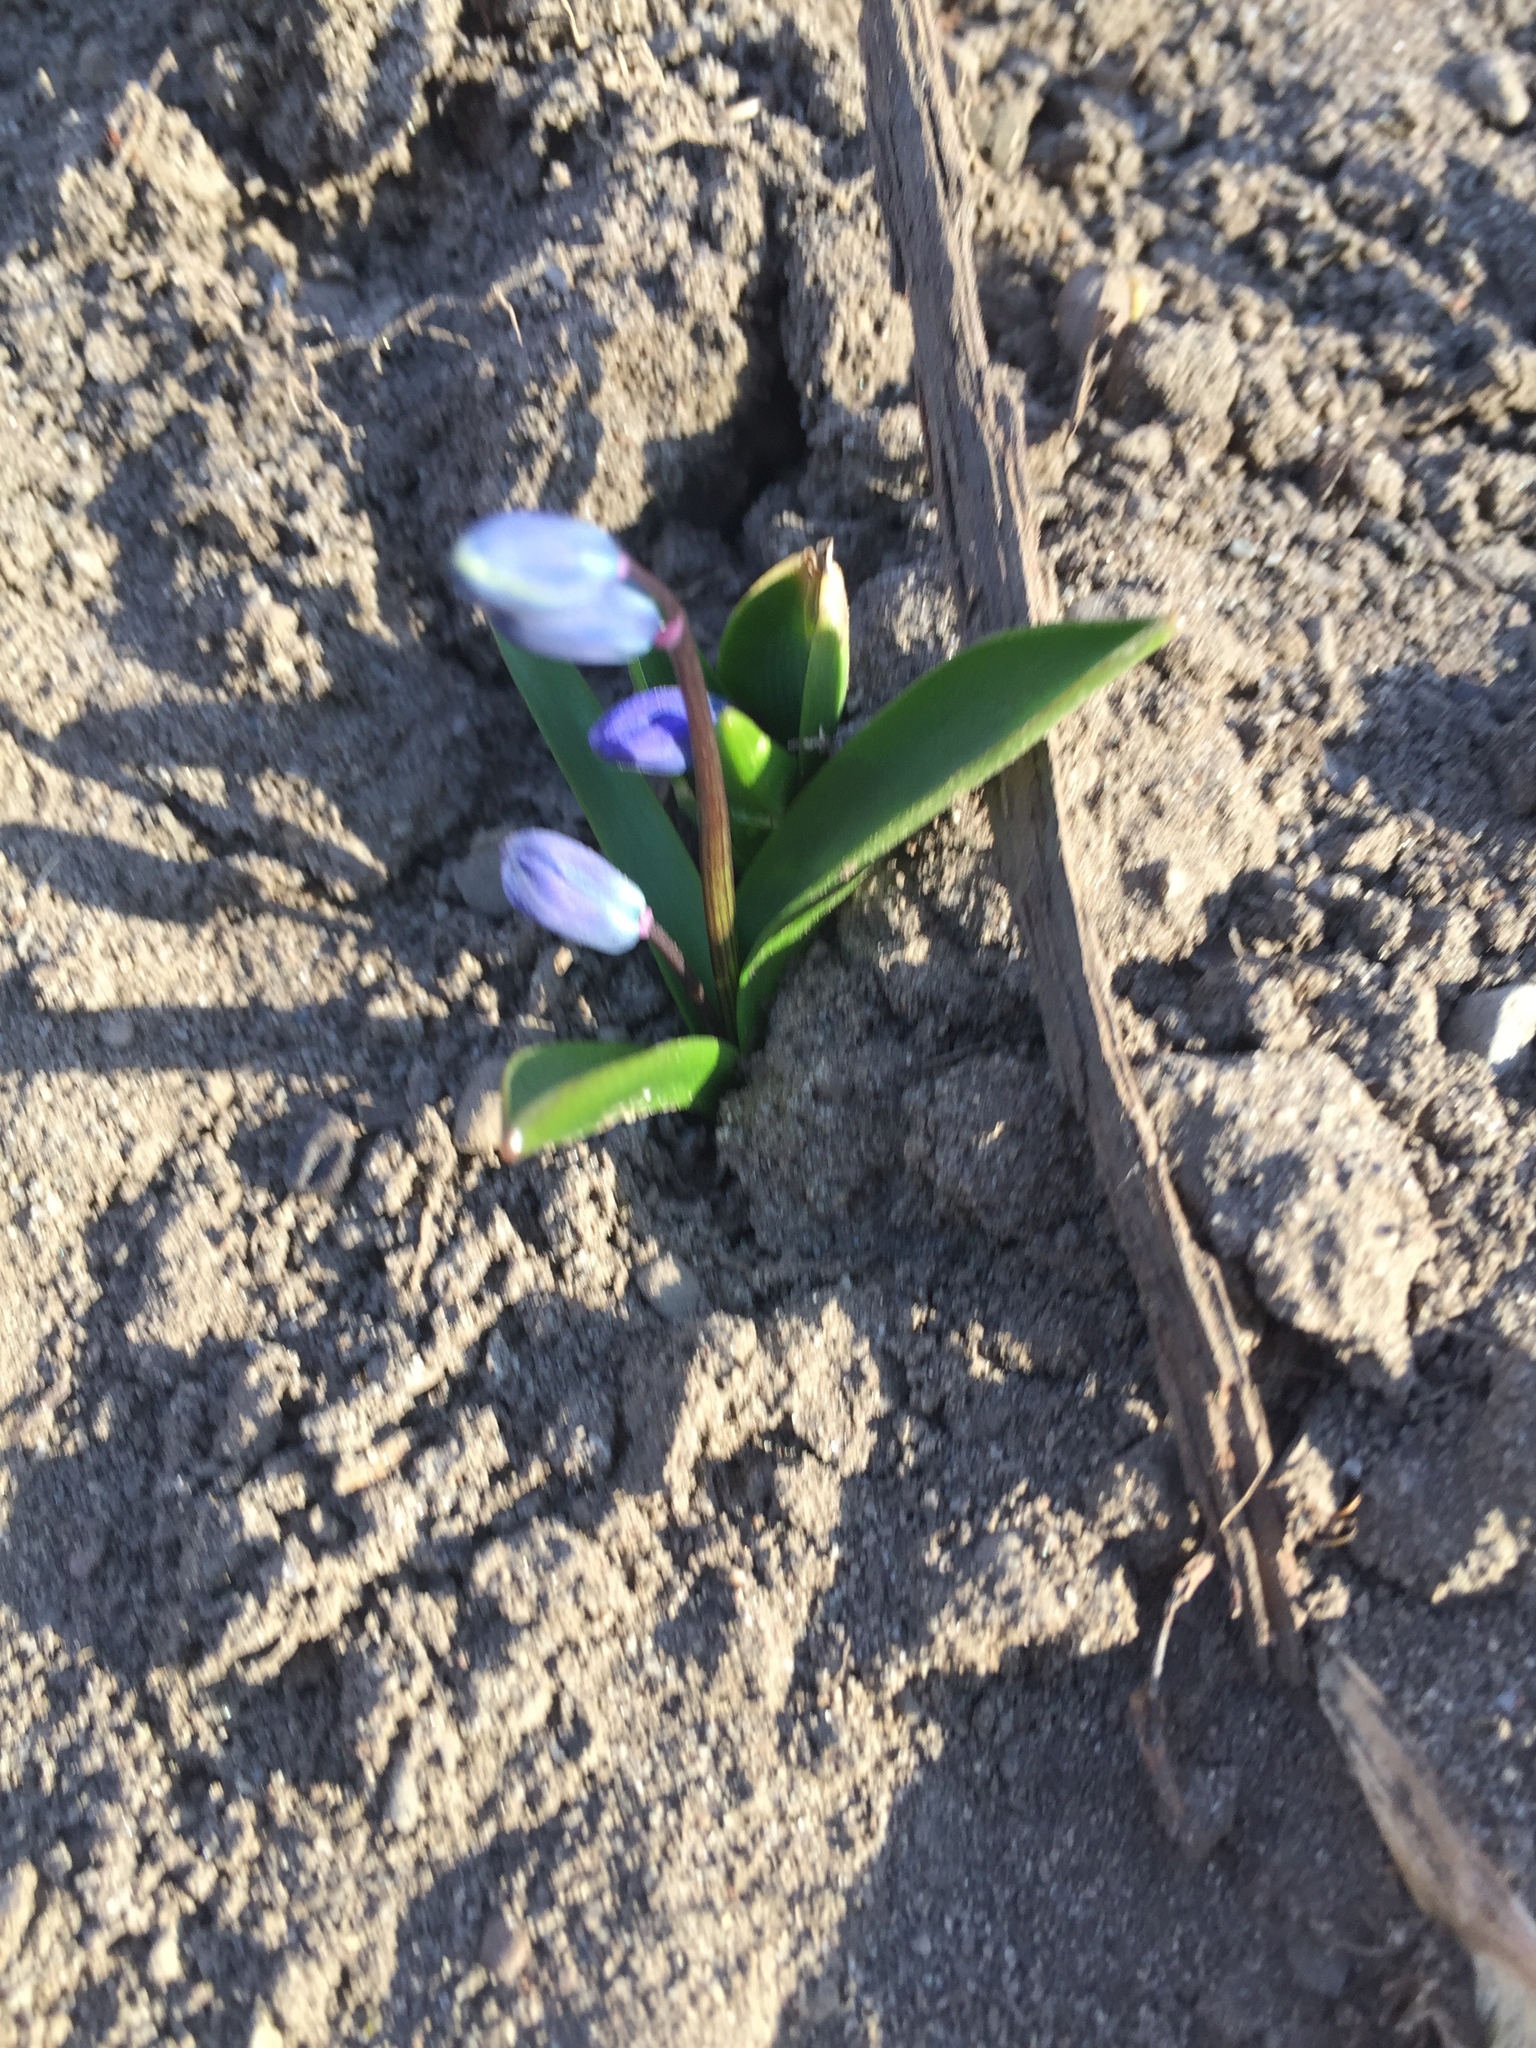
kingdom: Plantae
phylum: Tracheophyta
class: Liliopsida
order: Asparagales
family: Asparagaceae
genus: Scilla
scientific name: Scilla siberica
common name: Siberian squill
